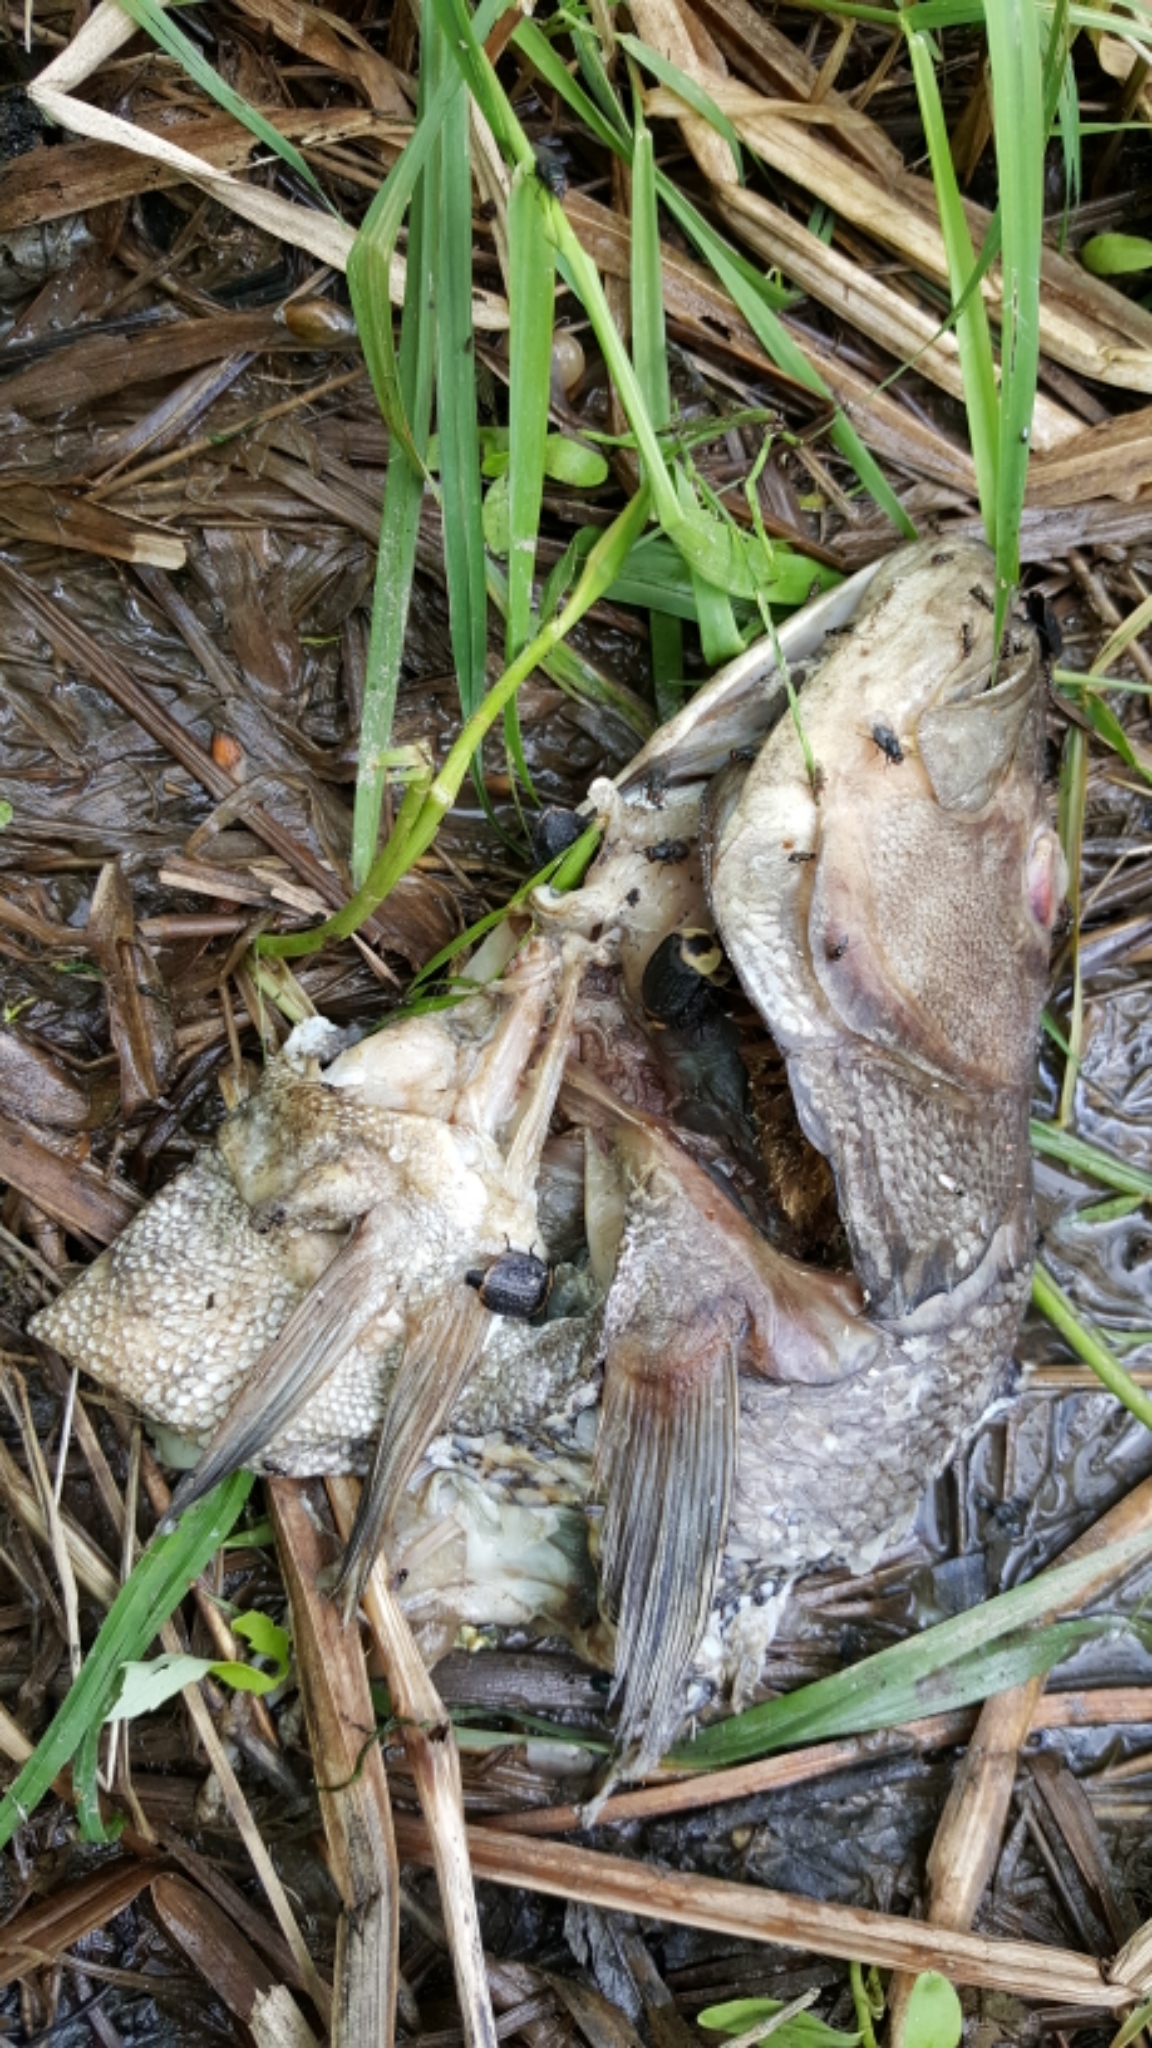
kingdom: Animalia
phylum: Chordata
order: Perciformes
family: Centrarchidae
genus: Micropterus
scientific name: Micropterus dolomieu
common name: Smallmouth bass
